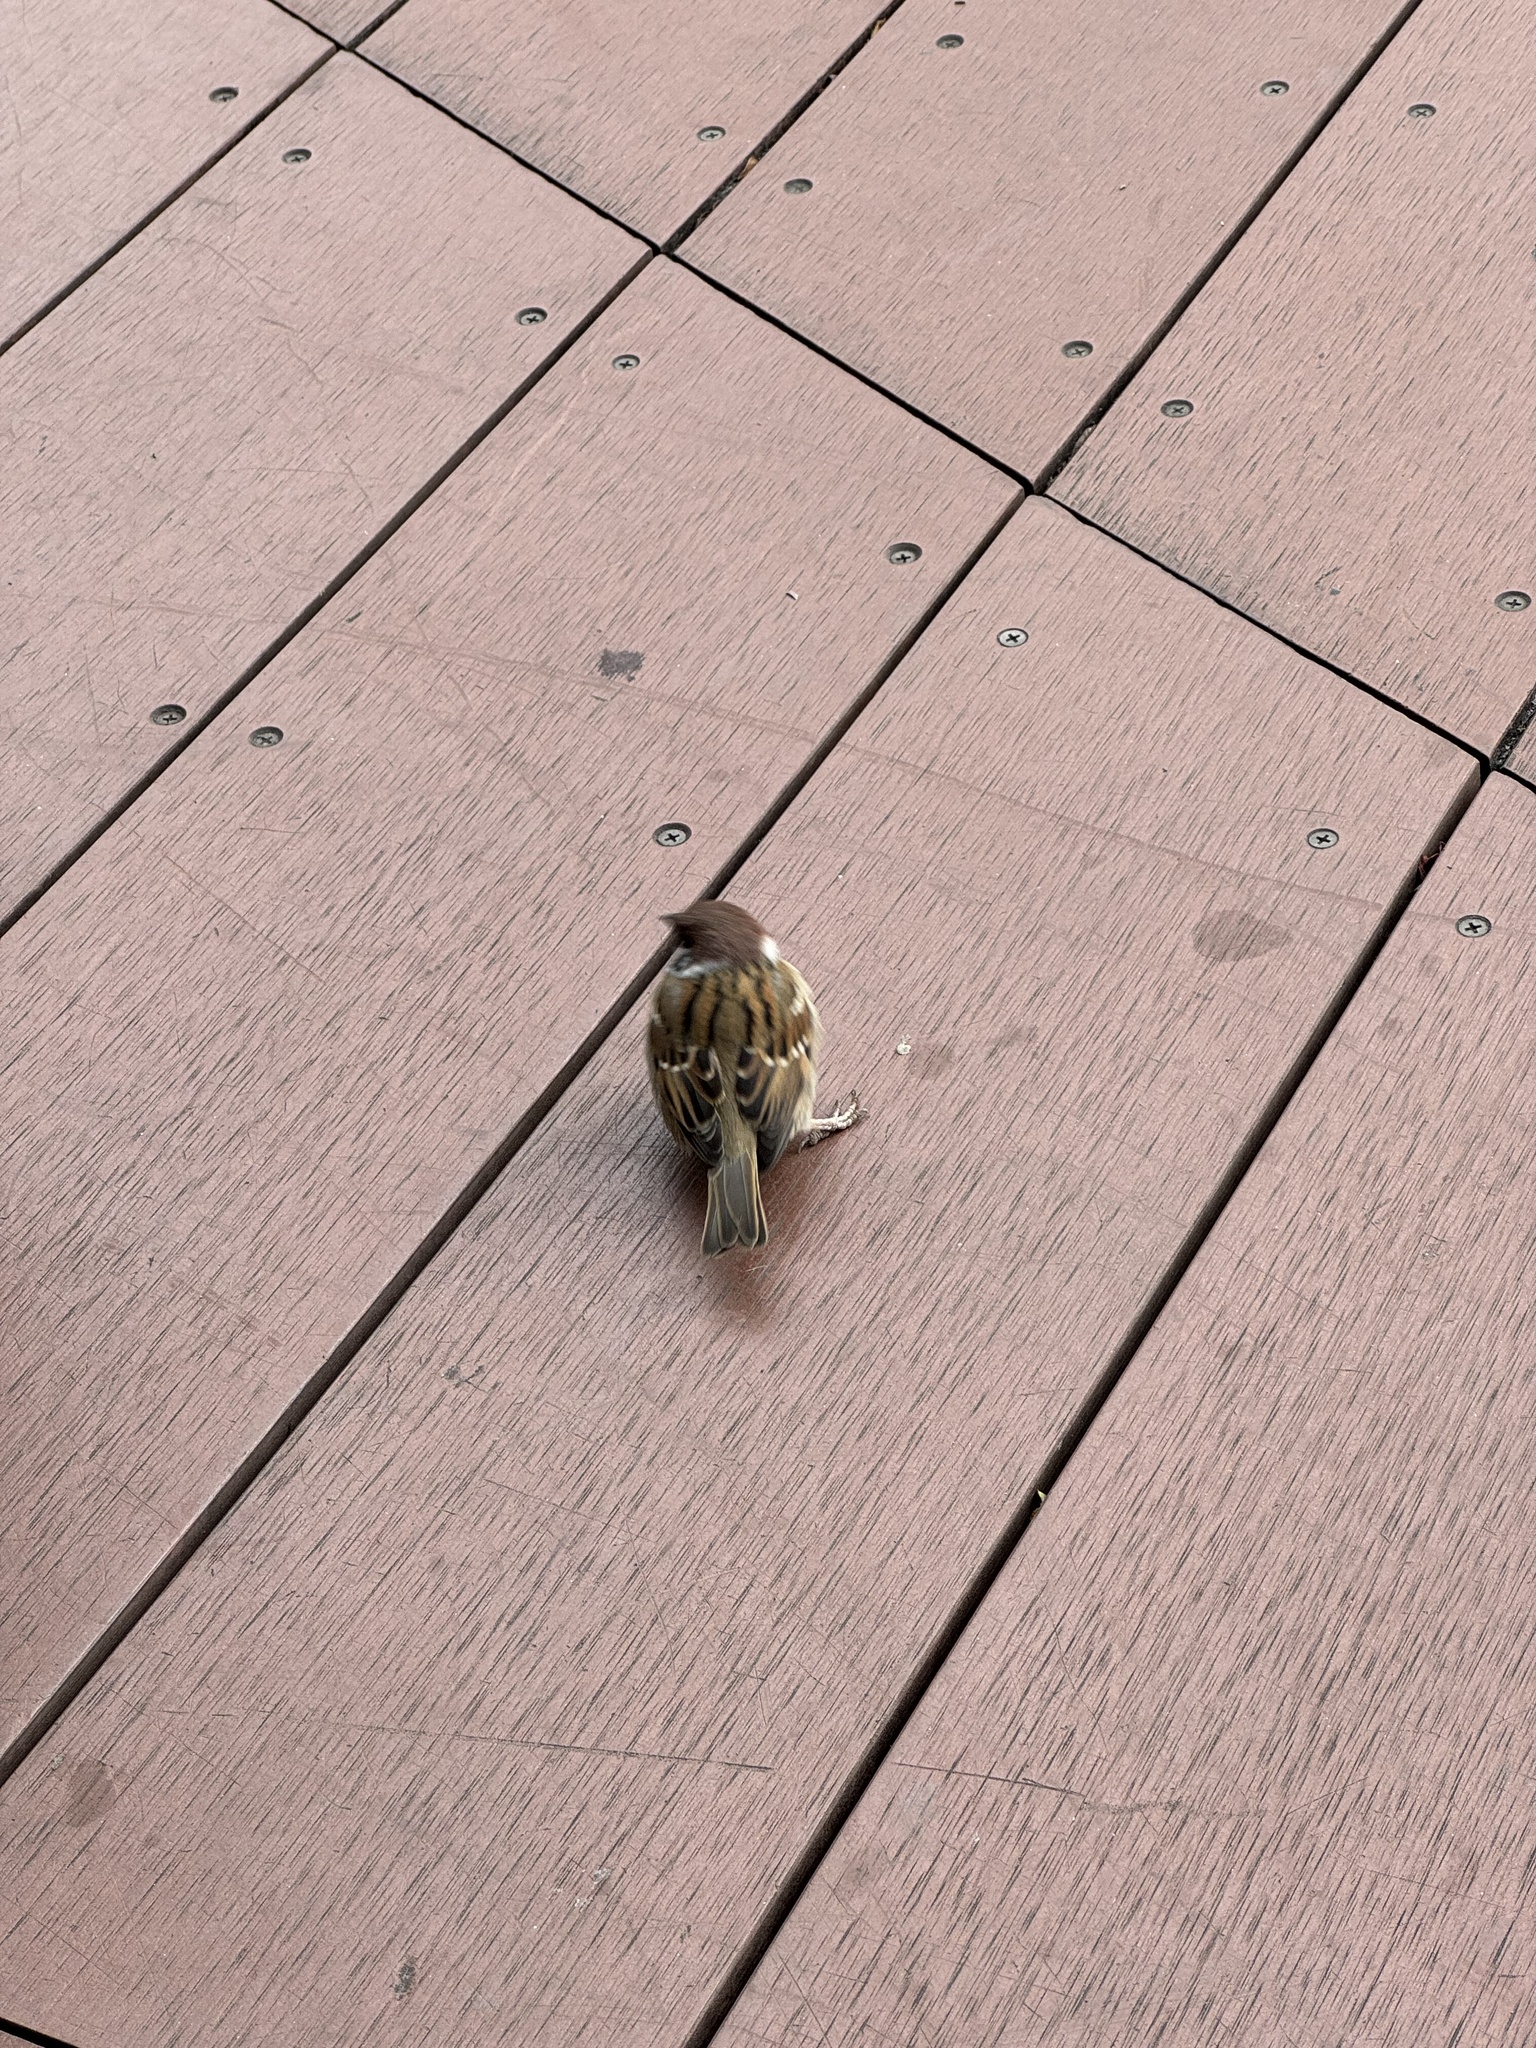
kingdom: Animalia
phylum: Chordata
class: Aves
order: Passeriformes
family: Passeridae
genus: Passer
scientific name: Passer montanus
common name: Eurasian tree sparrow
